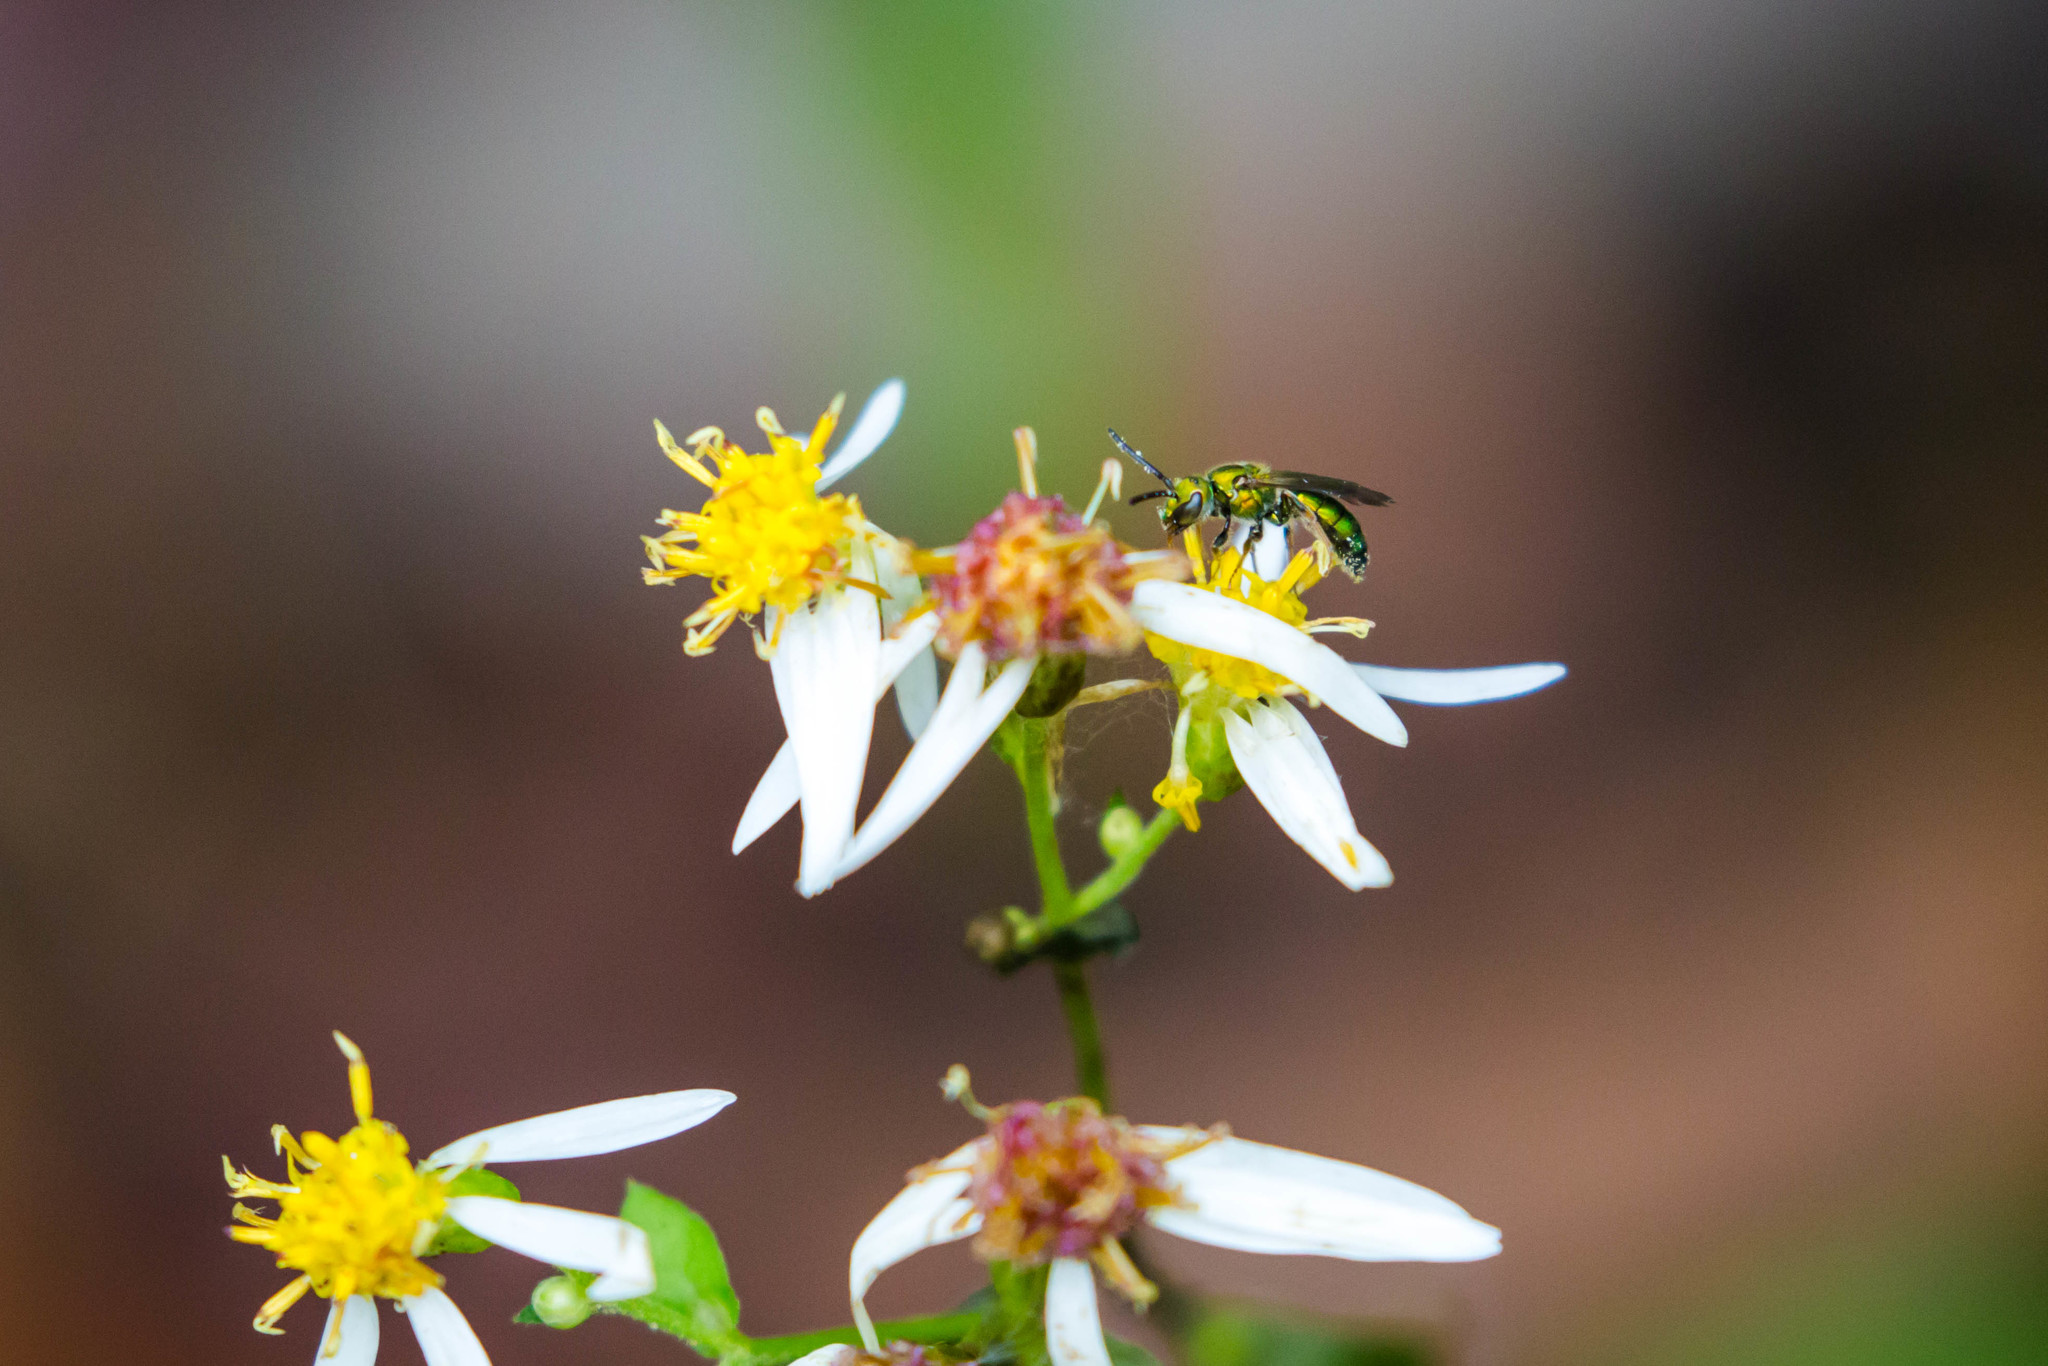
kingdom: Animalia
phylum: Arthropoda
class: Insecta
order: Hymenoptera
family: Halictidae
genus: Augochlora
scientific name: Augochlora pura
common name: Pure green sweat bee
